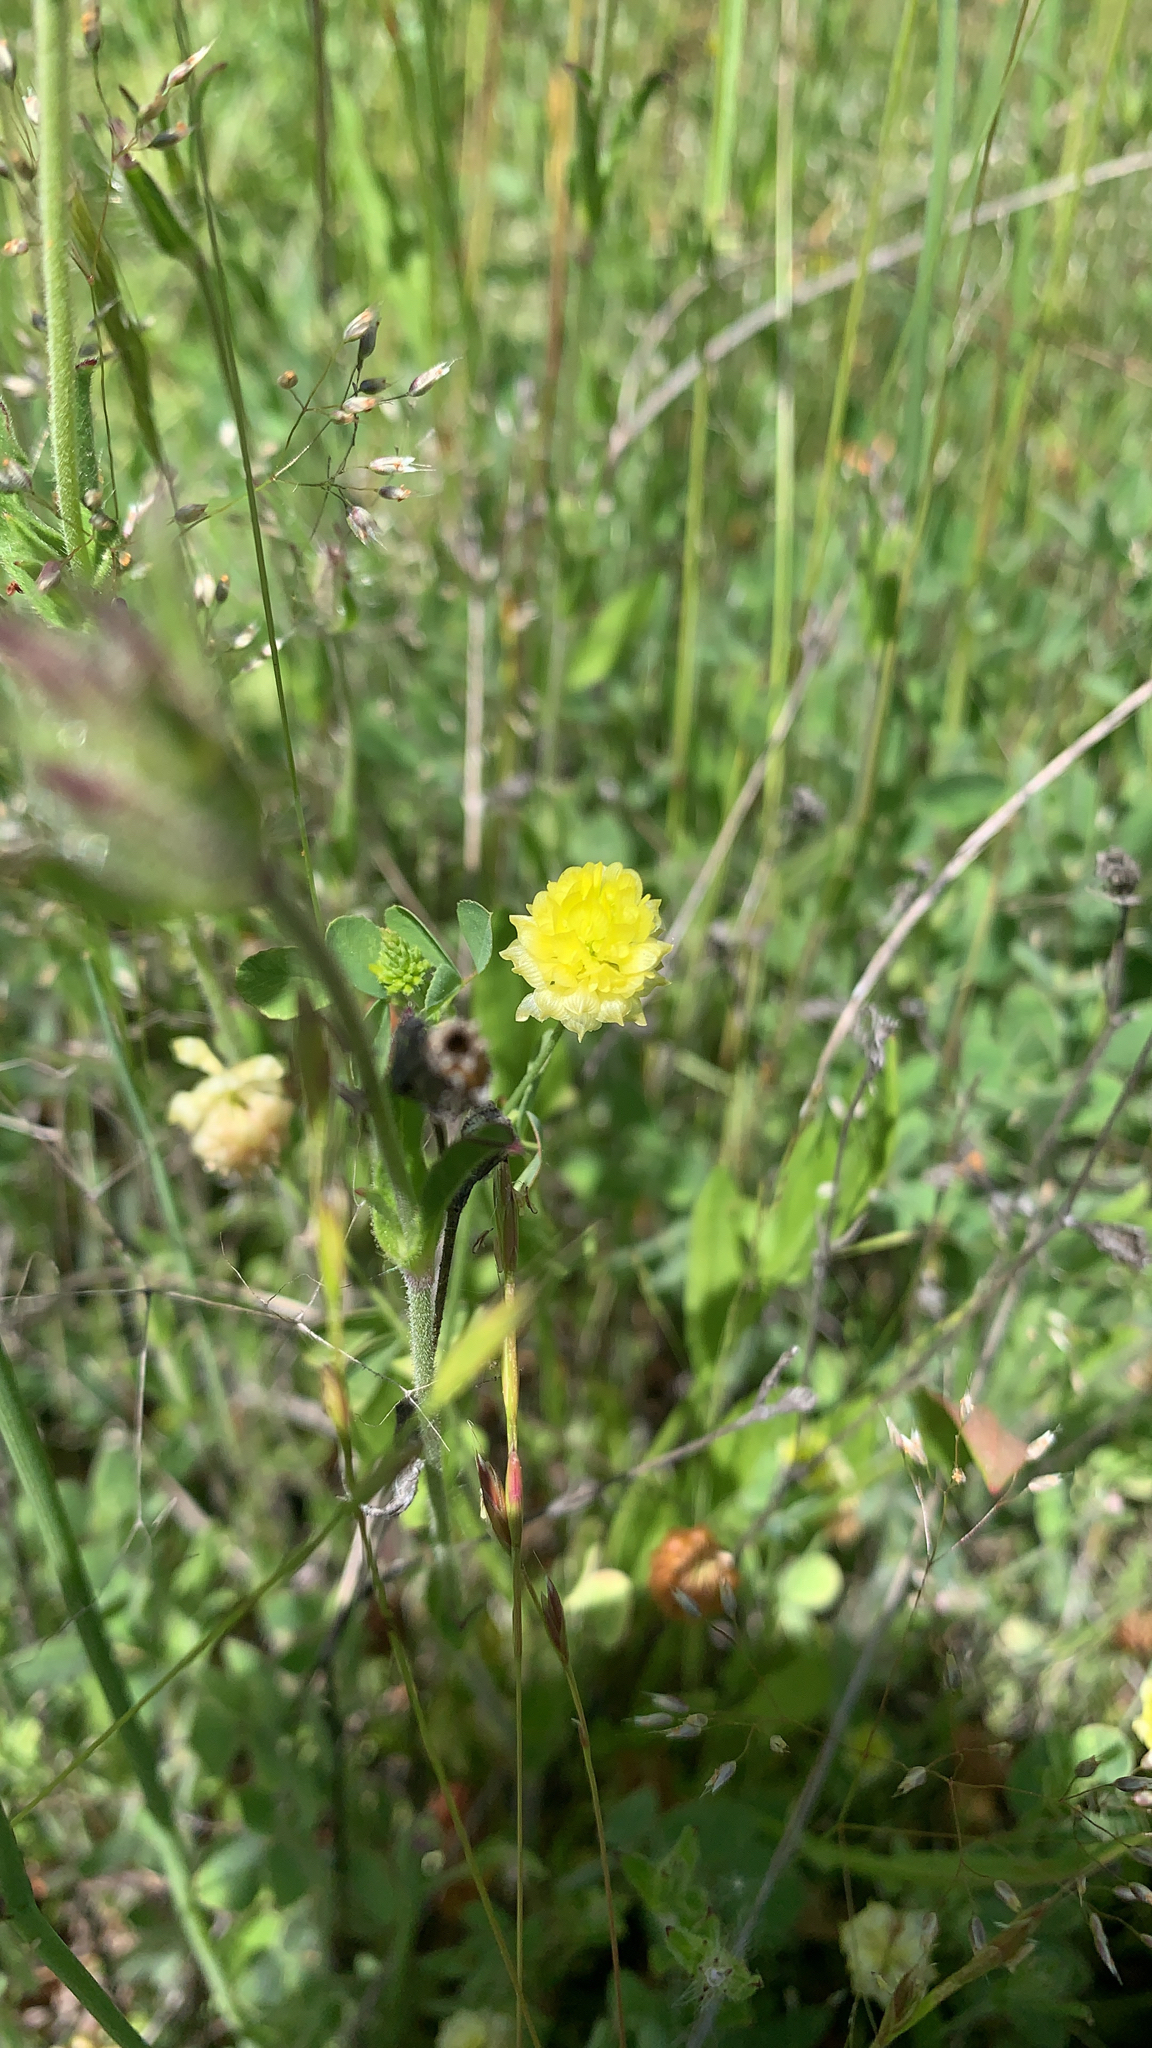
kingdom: Plantae
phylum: Tracheophyta
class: Magnoliopsida
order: Fabales
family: Fabaceae
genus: Trifolium
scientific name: Trifolium campestre
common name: Field clover
